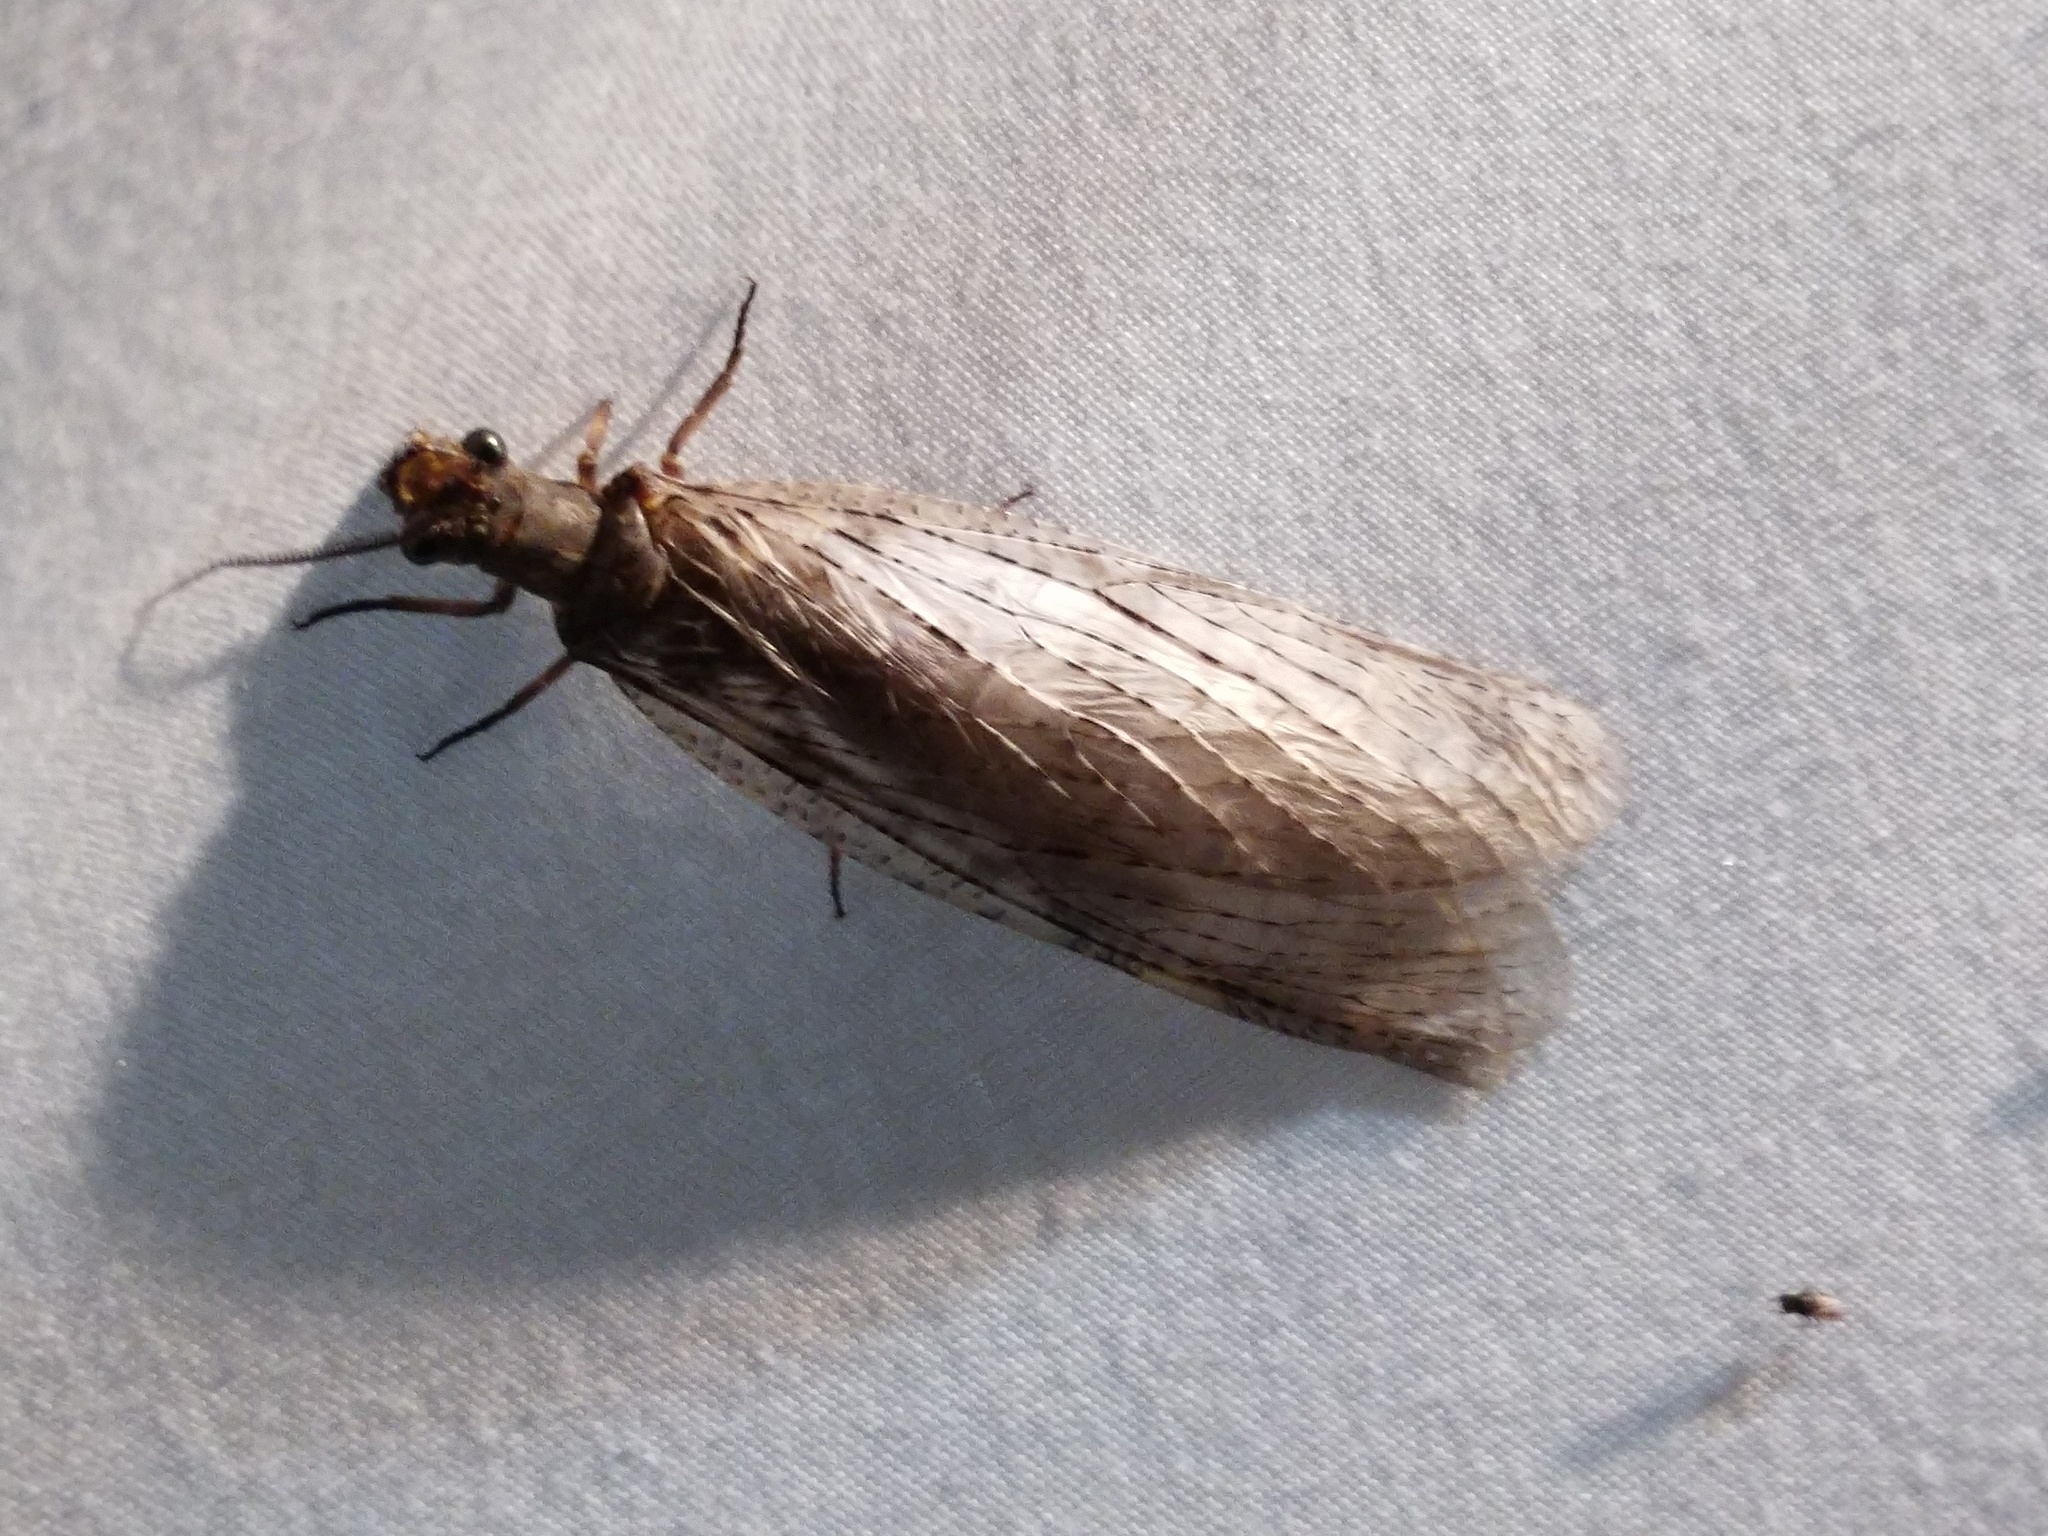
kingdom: Animalia
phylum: Arthropoda
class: Insecta
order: Megaloptera
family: Corydalidae
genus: Chauliodes
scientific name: Chauliodes pectinicornis
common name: Summer fishfly
